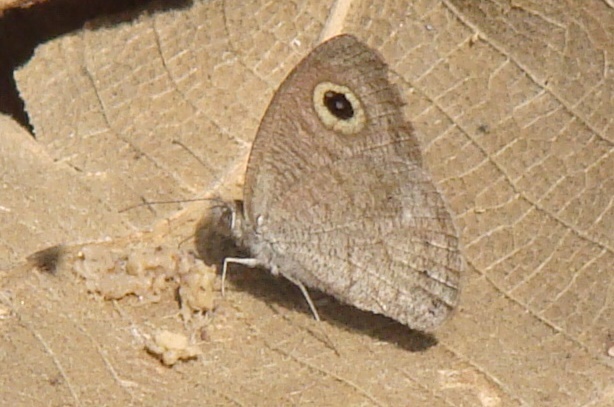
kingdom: Animalia
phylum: Arthropoda
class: Insecta
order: Lepidoptera
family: Nymphalidae
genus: Ypthima
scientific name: Ypthima baldus
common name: Common five-ring
